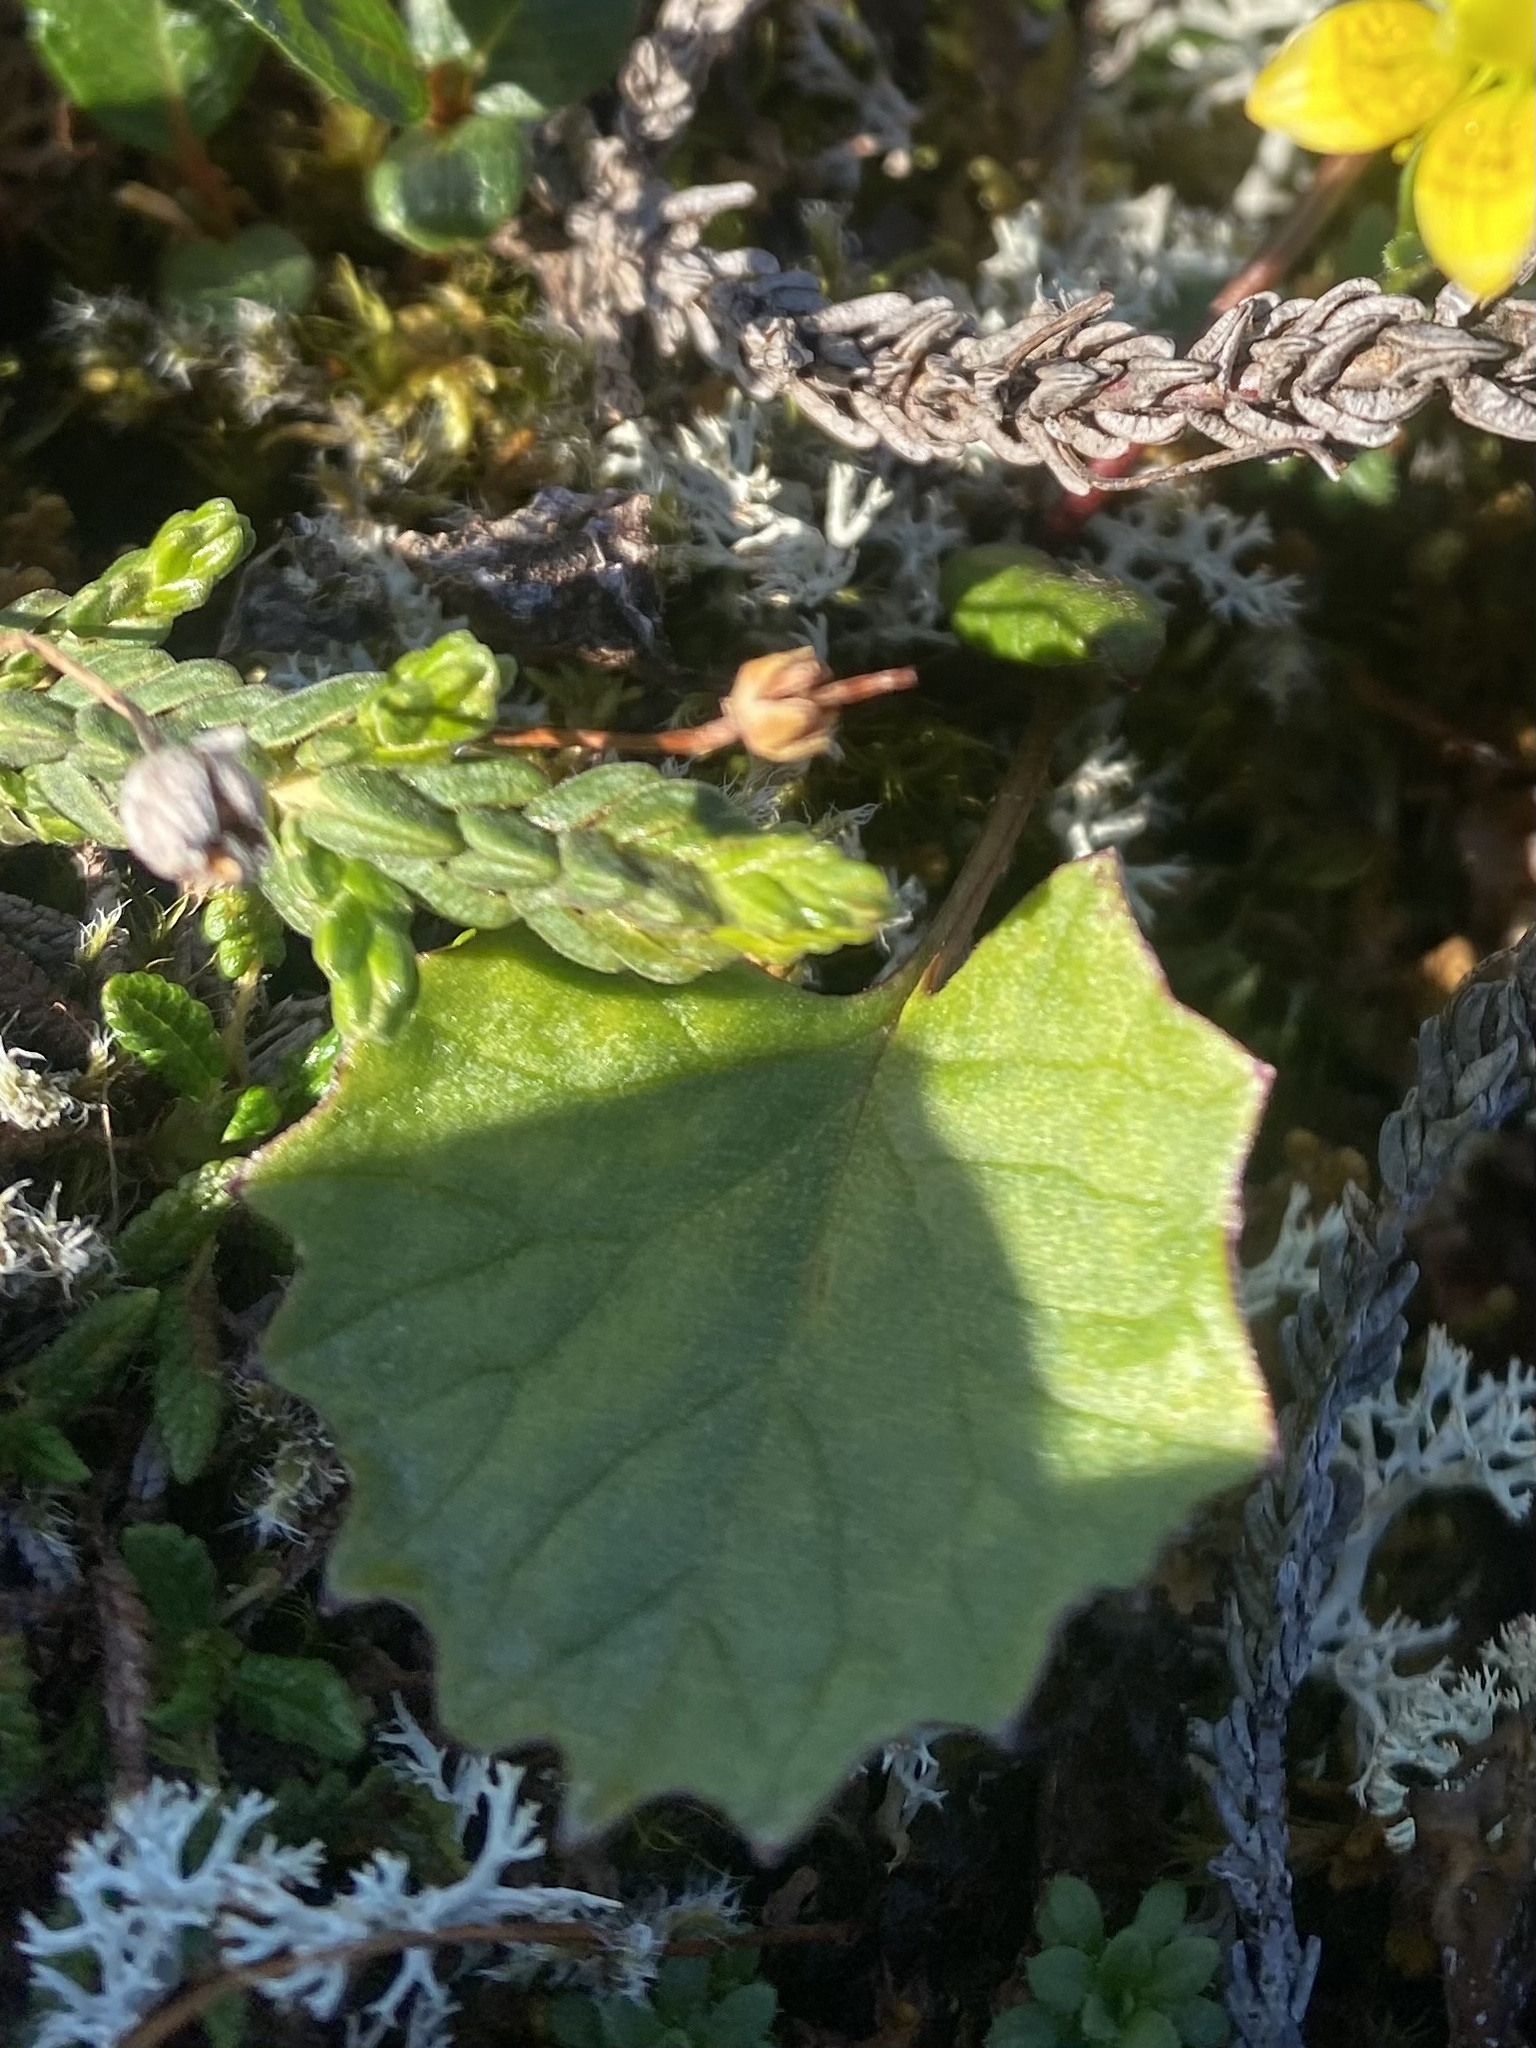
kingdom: Plantae
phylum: Tracheophyta
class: Magnoliopsida
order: Asterales
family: Asteraceae
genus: Endocellion
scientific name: Endocellion glaciale
